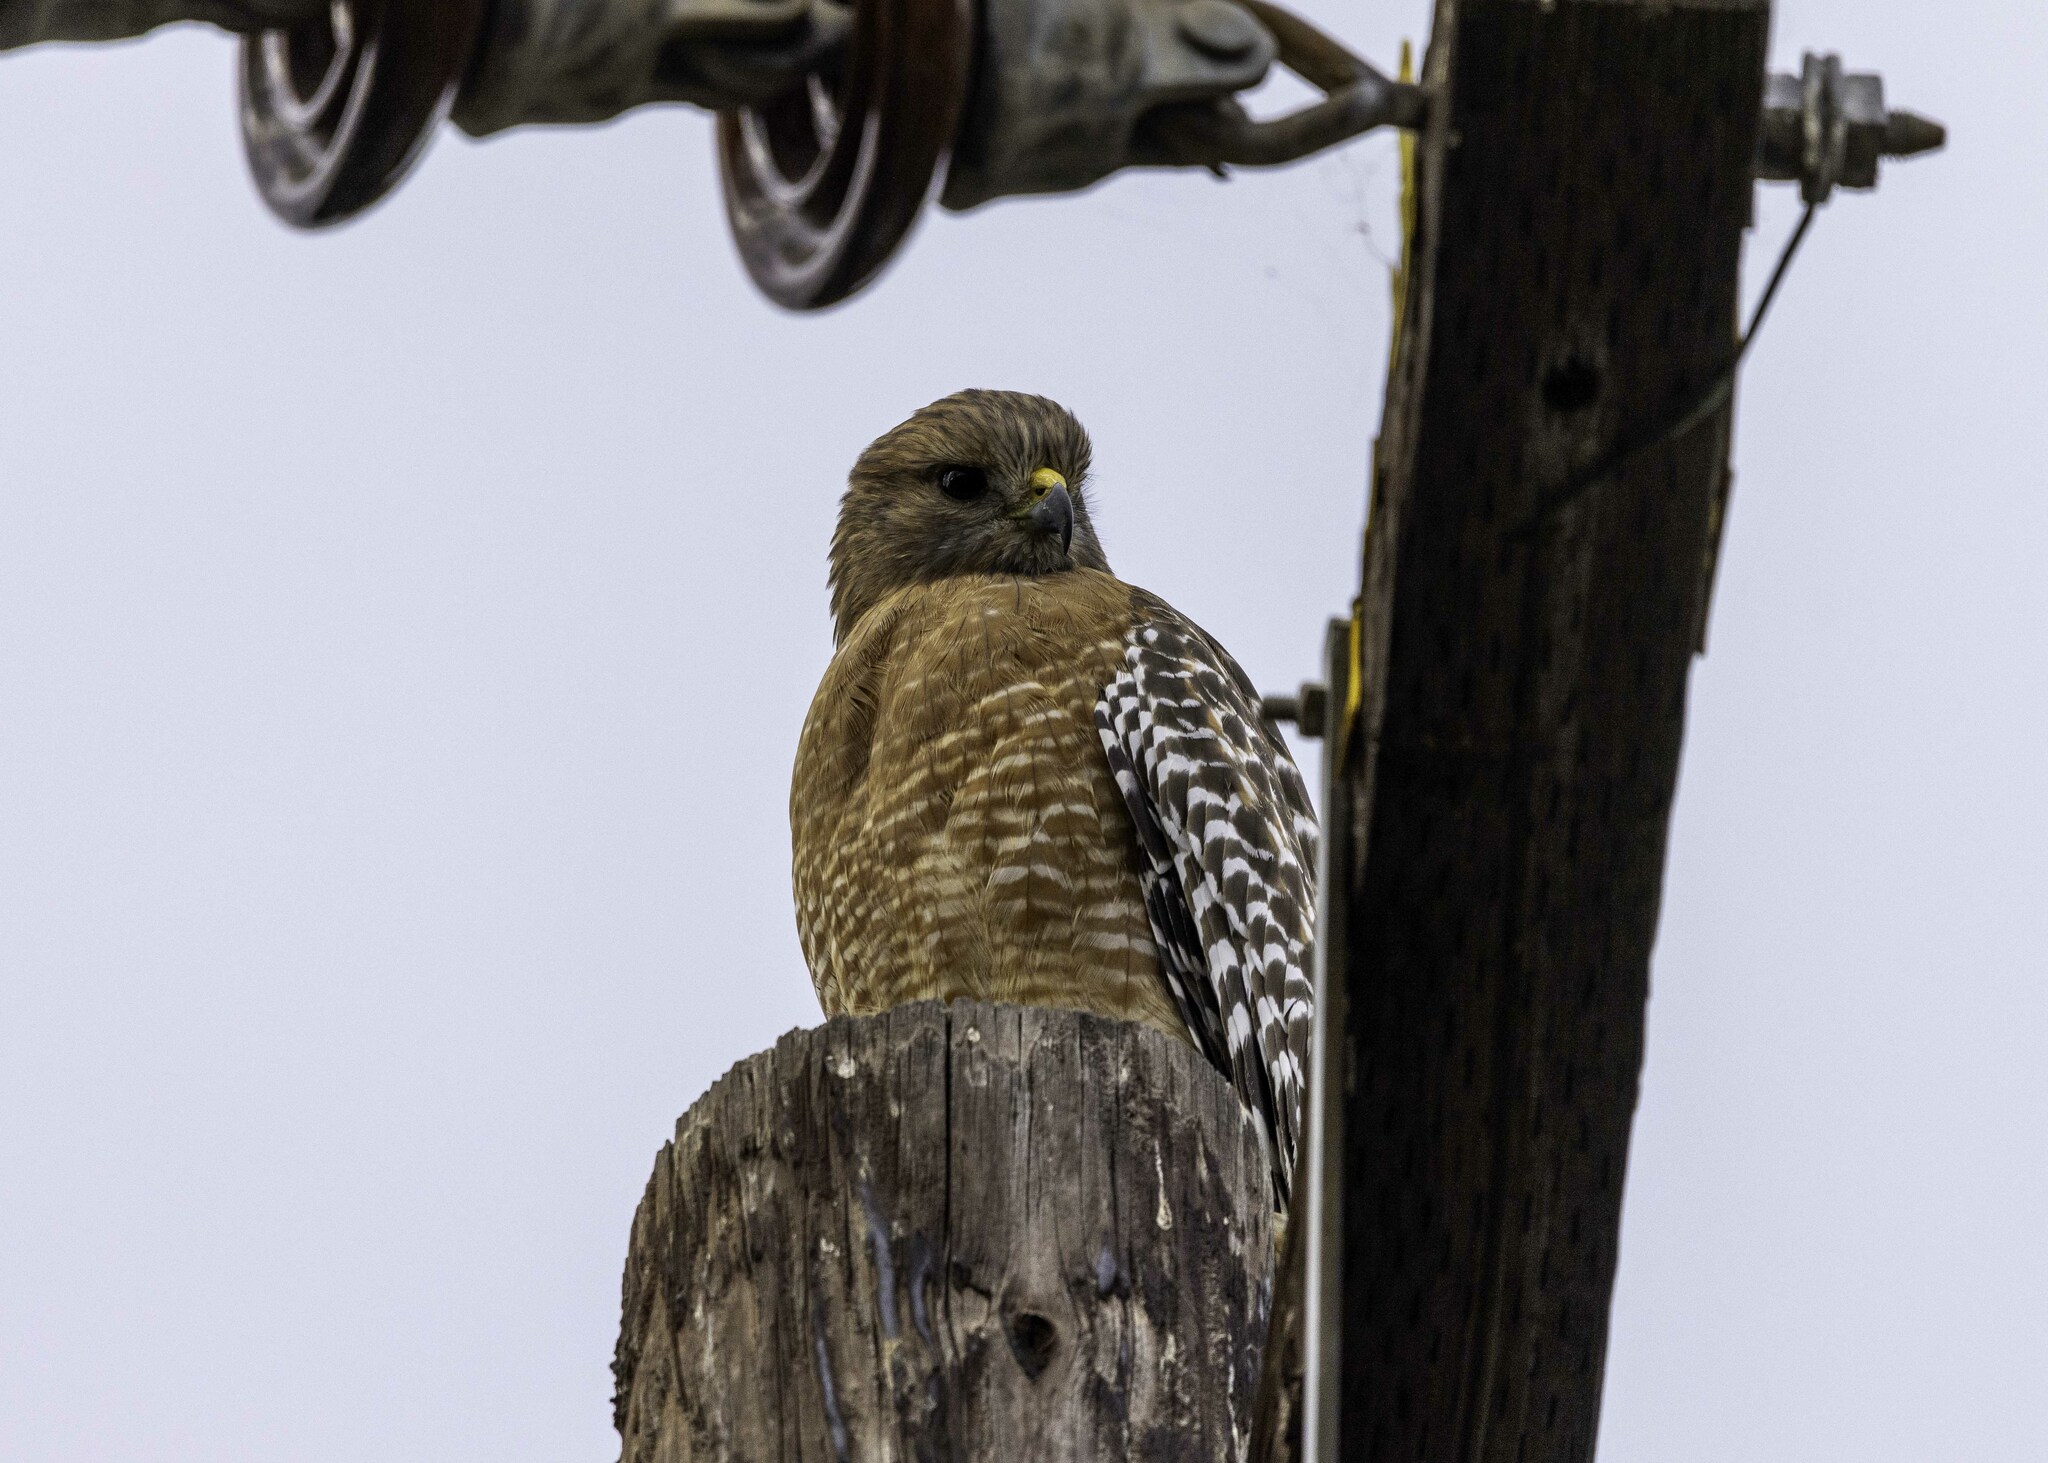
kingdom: Animalia
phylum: Chordata
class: Aves
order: Accipitriformes
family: Accipitridae
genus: Buteo
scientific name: Buteo lineatus
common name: Red-shouldered hawk
